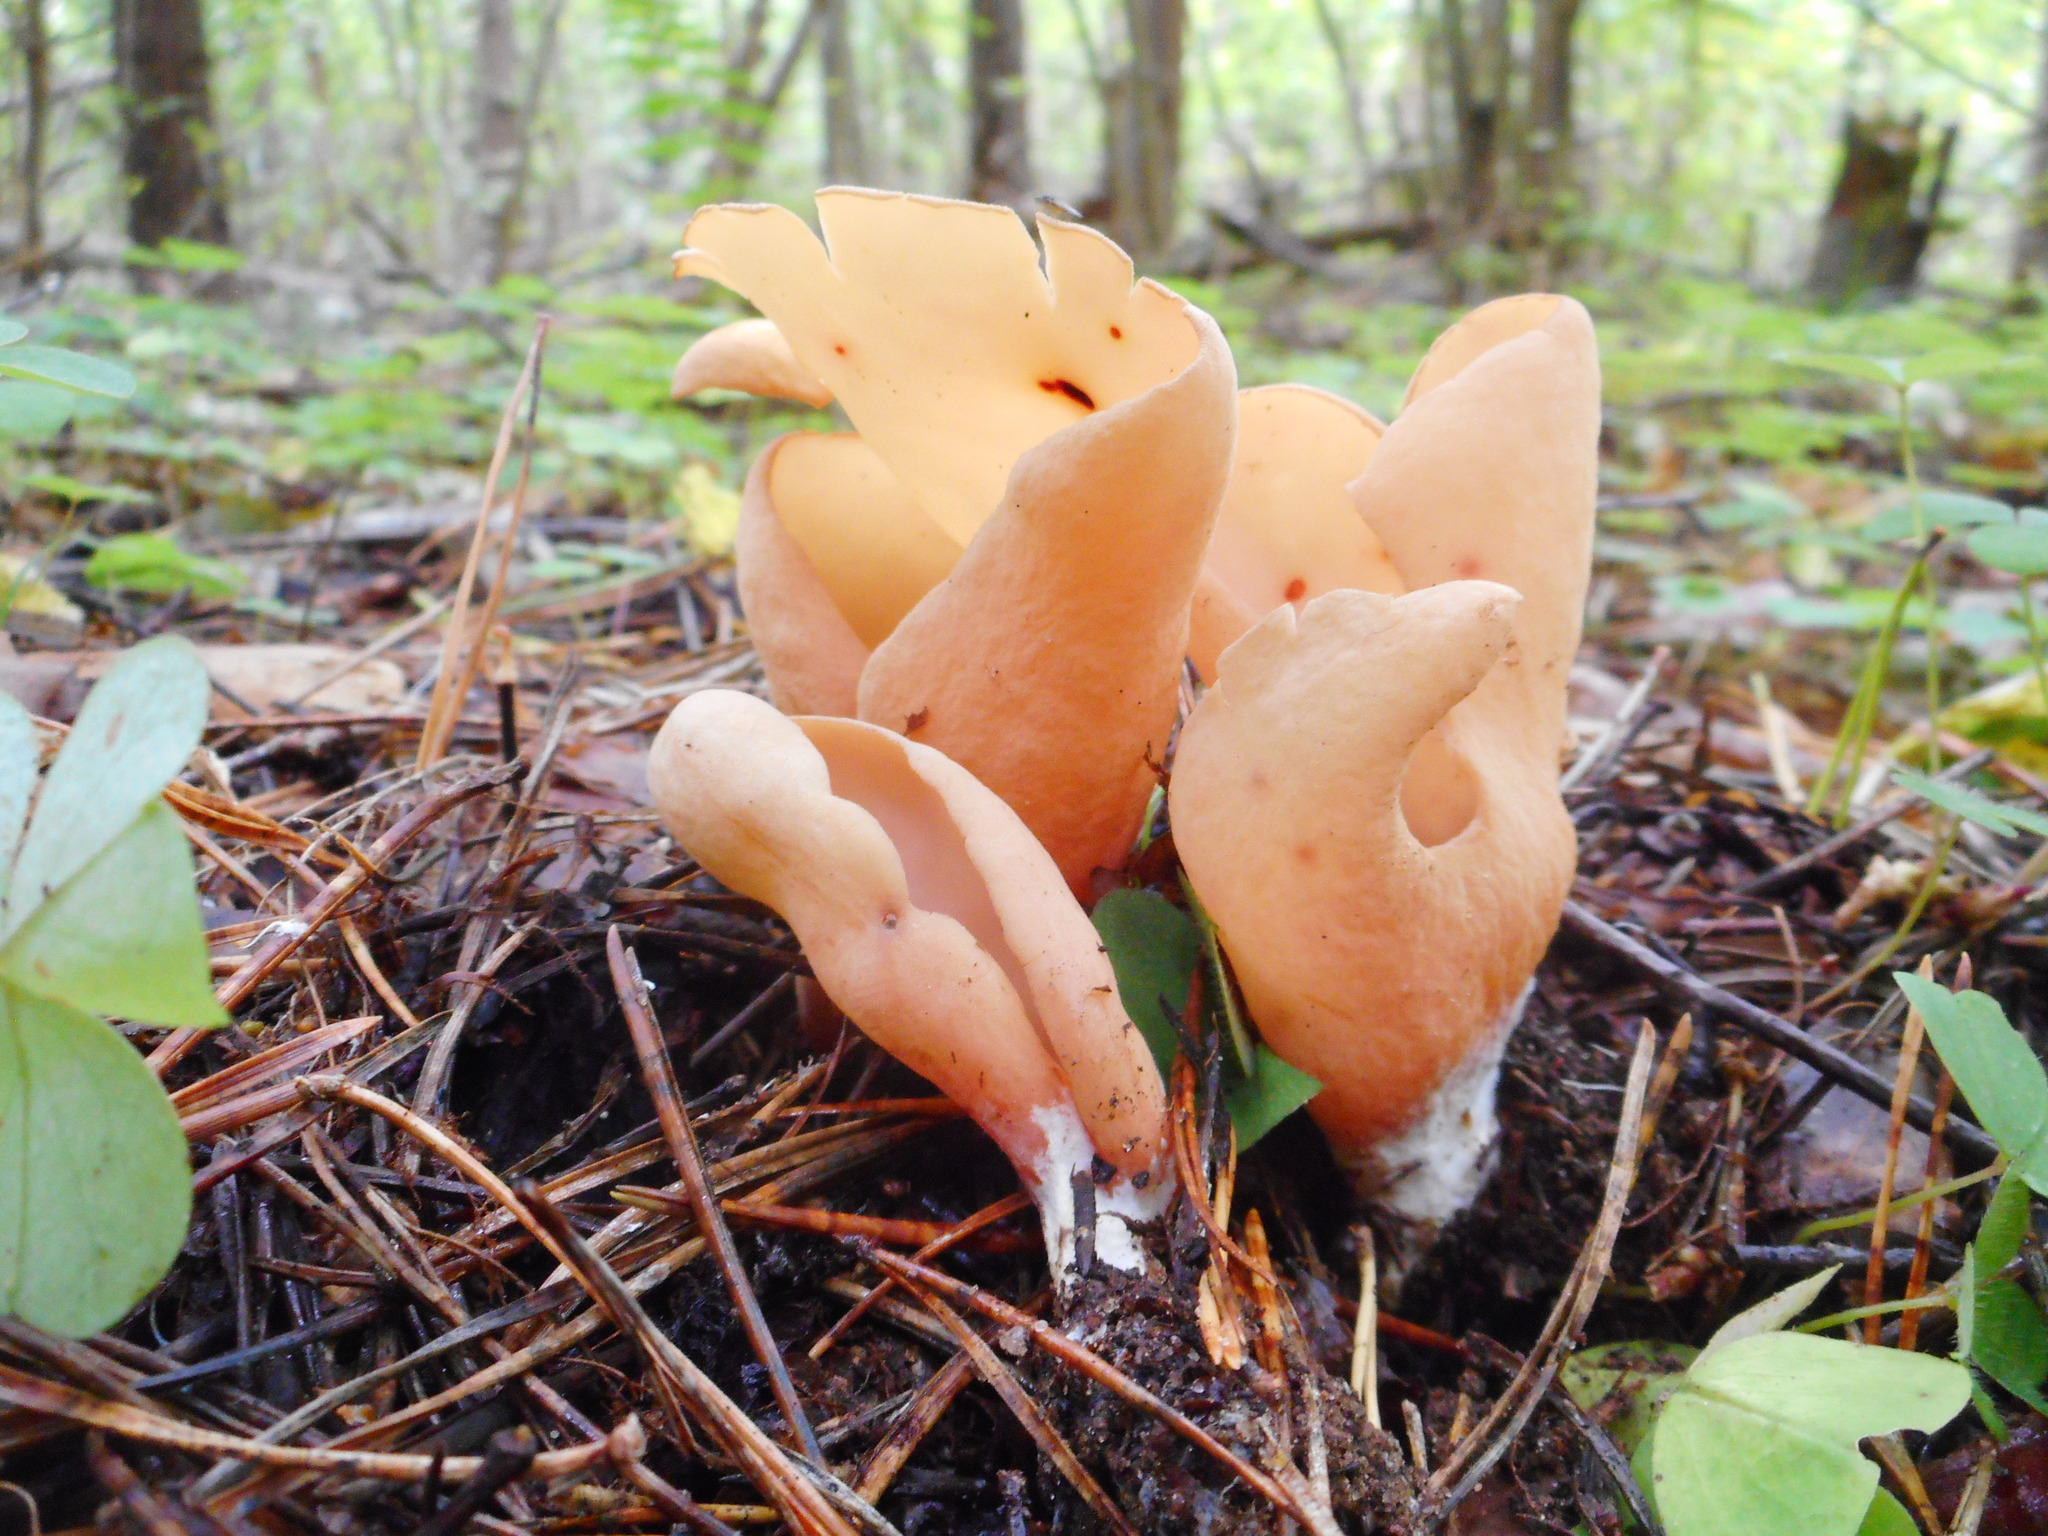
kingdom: Fungi
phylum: Ascomycota
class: Pezizomycetes
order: Pezizales
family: Otideaceae
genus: Otidea
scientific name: Otidea onotica
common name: Hare's ear
